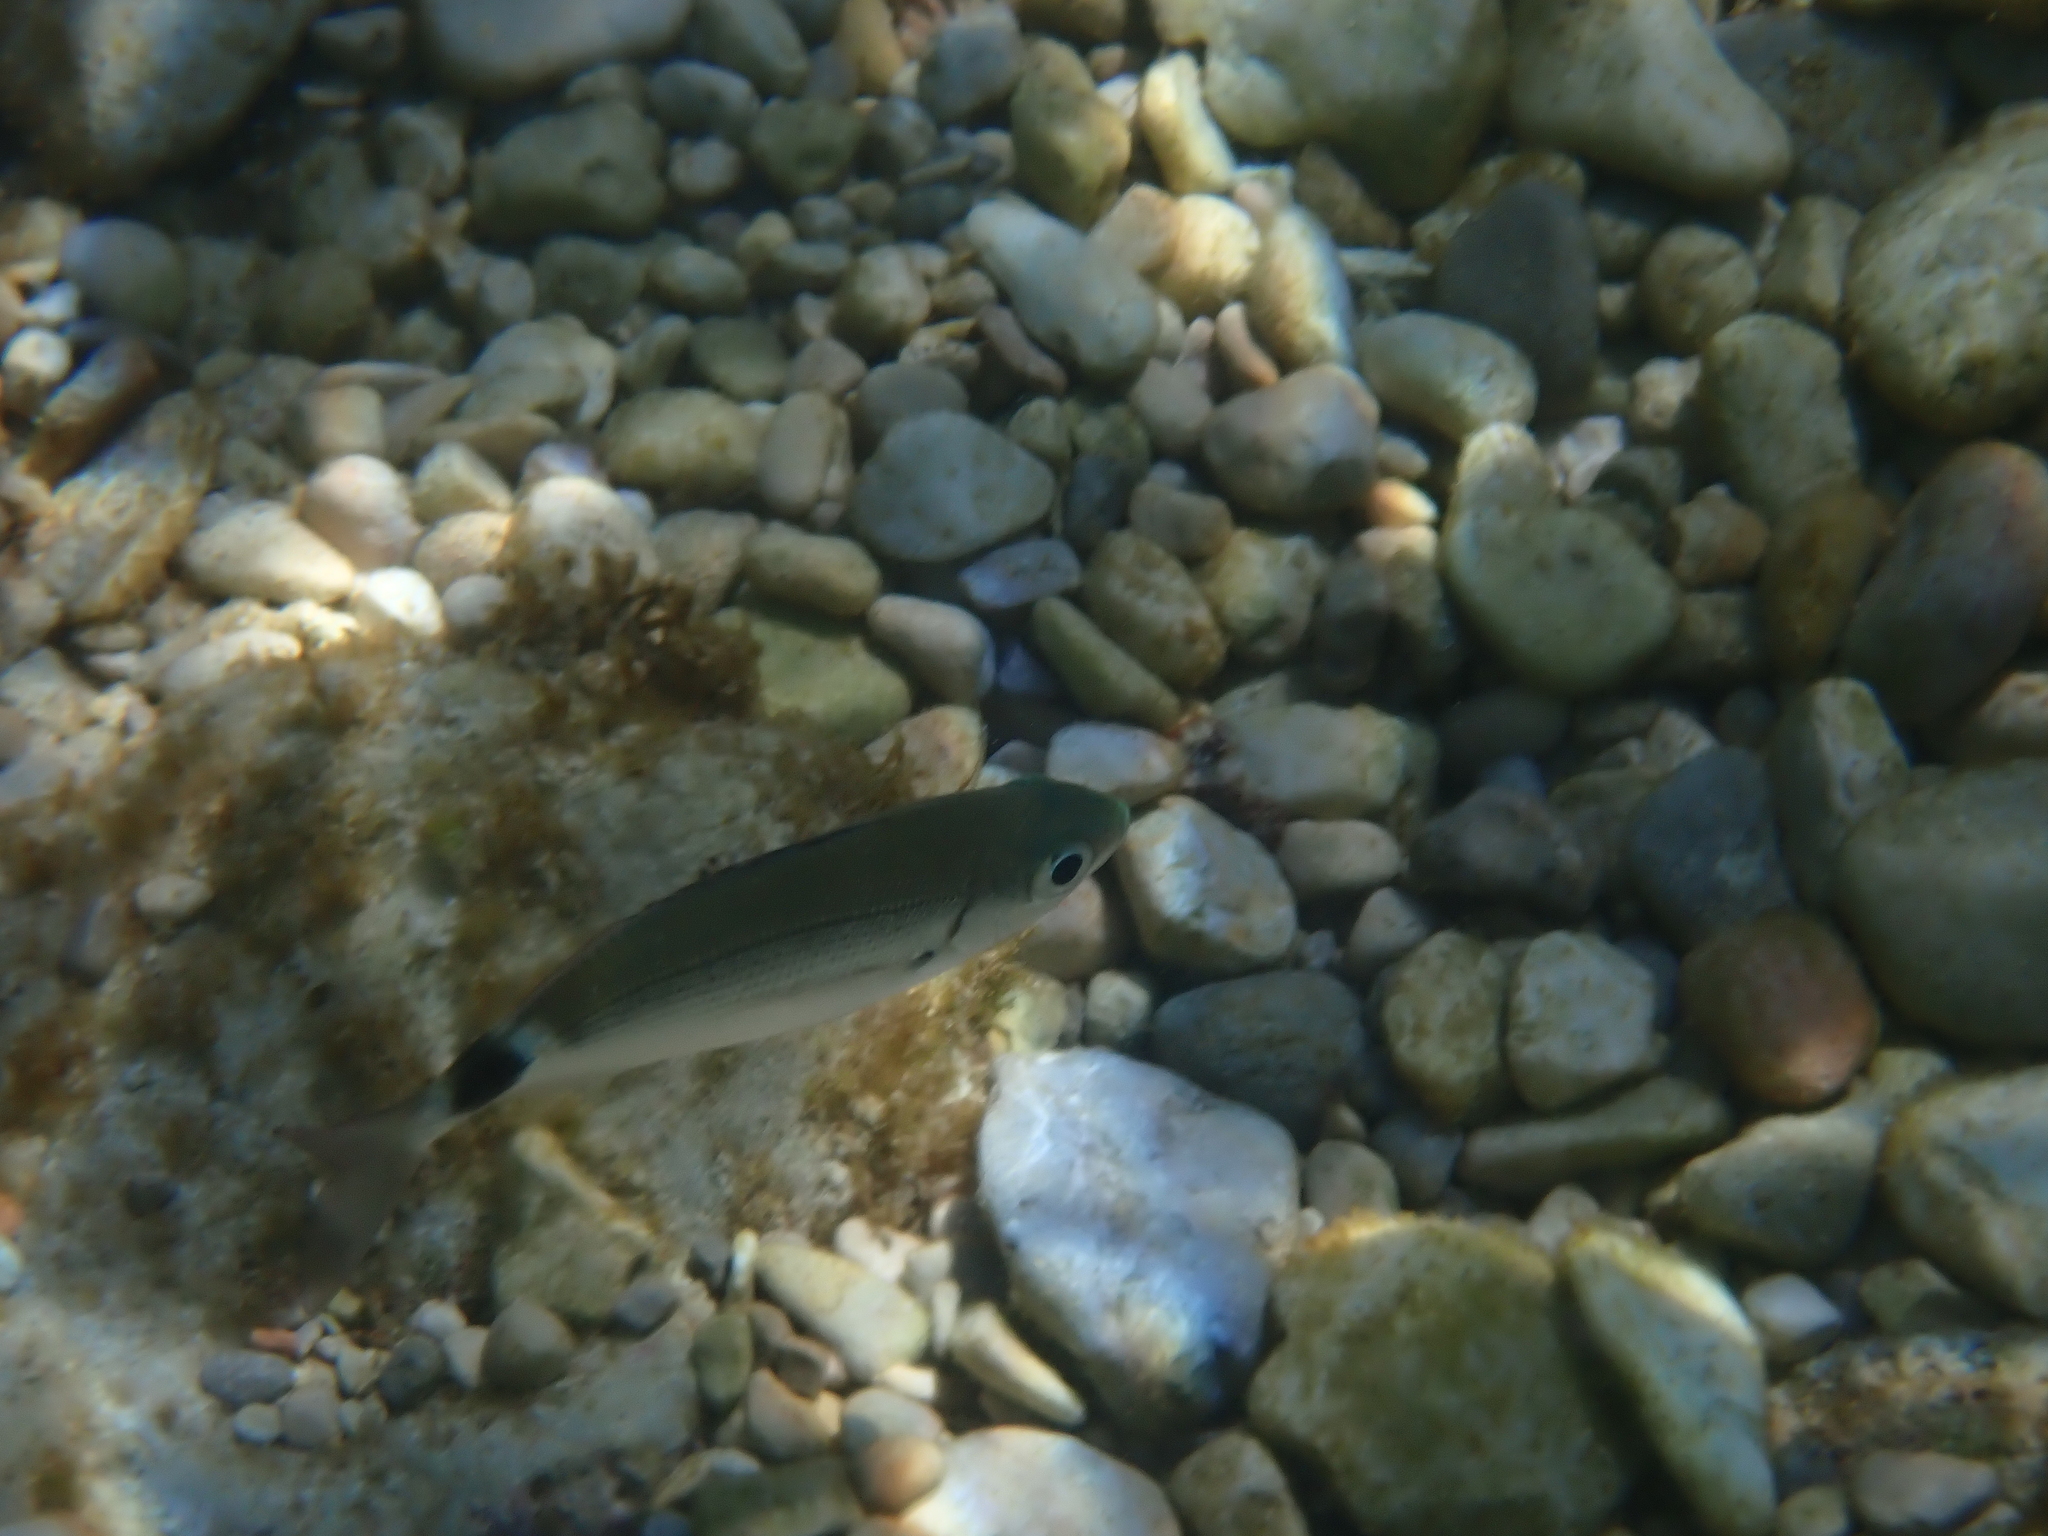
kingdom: Animalia
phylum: Chordata
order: Perciformes
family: Sparidae
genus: Oblada
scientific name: Oblada melanura
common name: Saddled seabream
